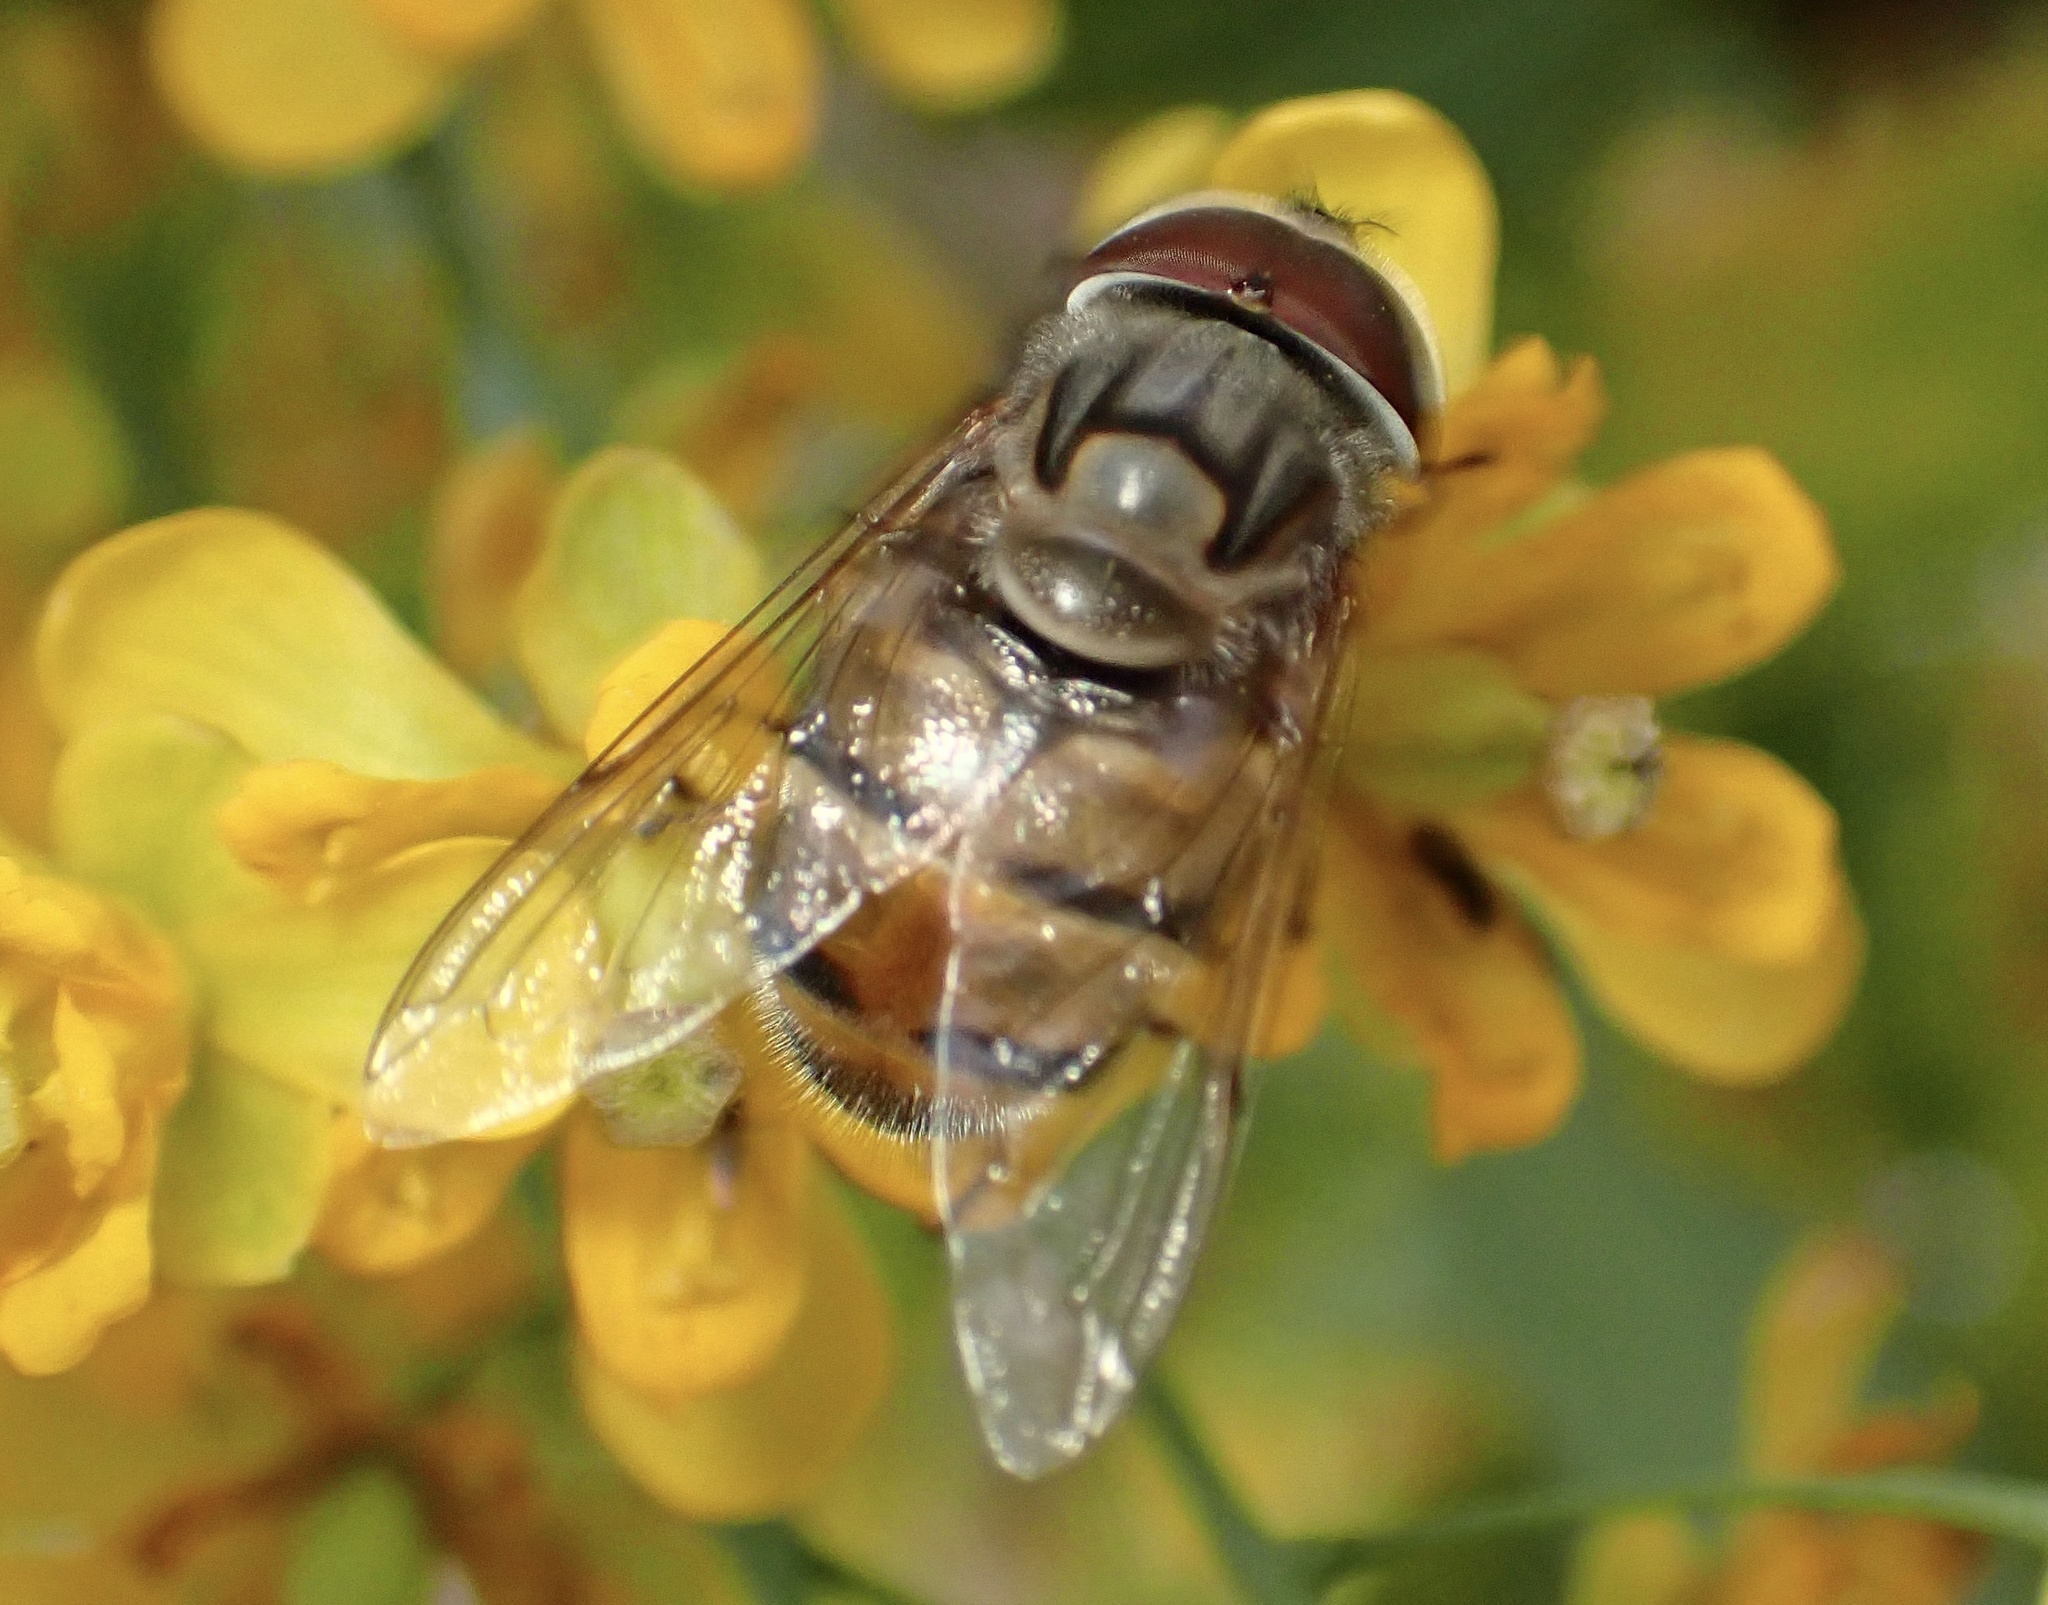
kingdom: Animalia
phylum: Arthropoda
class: Insecta
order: Diptera
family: Syrphidae
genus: Copestylum
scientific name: Copestylum isabellina
